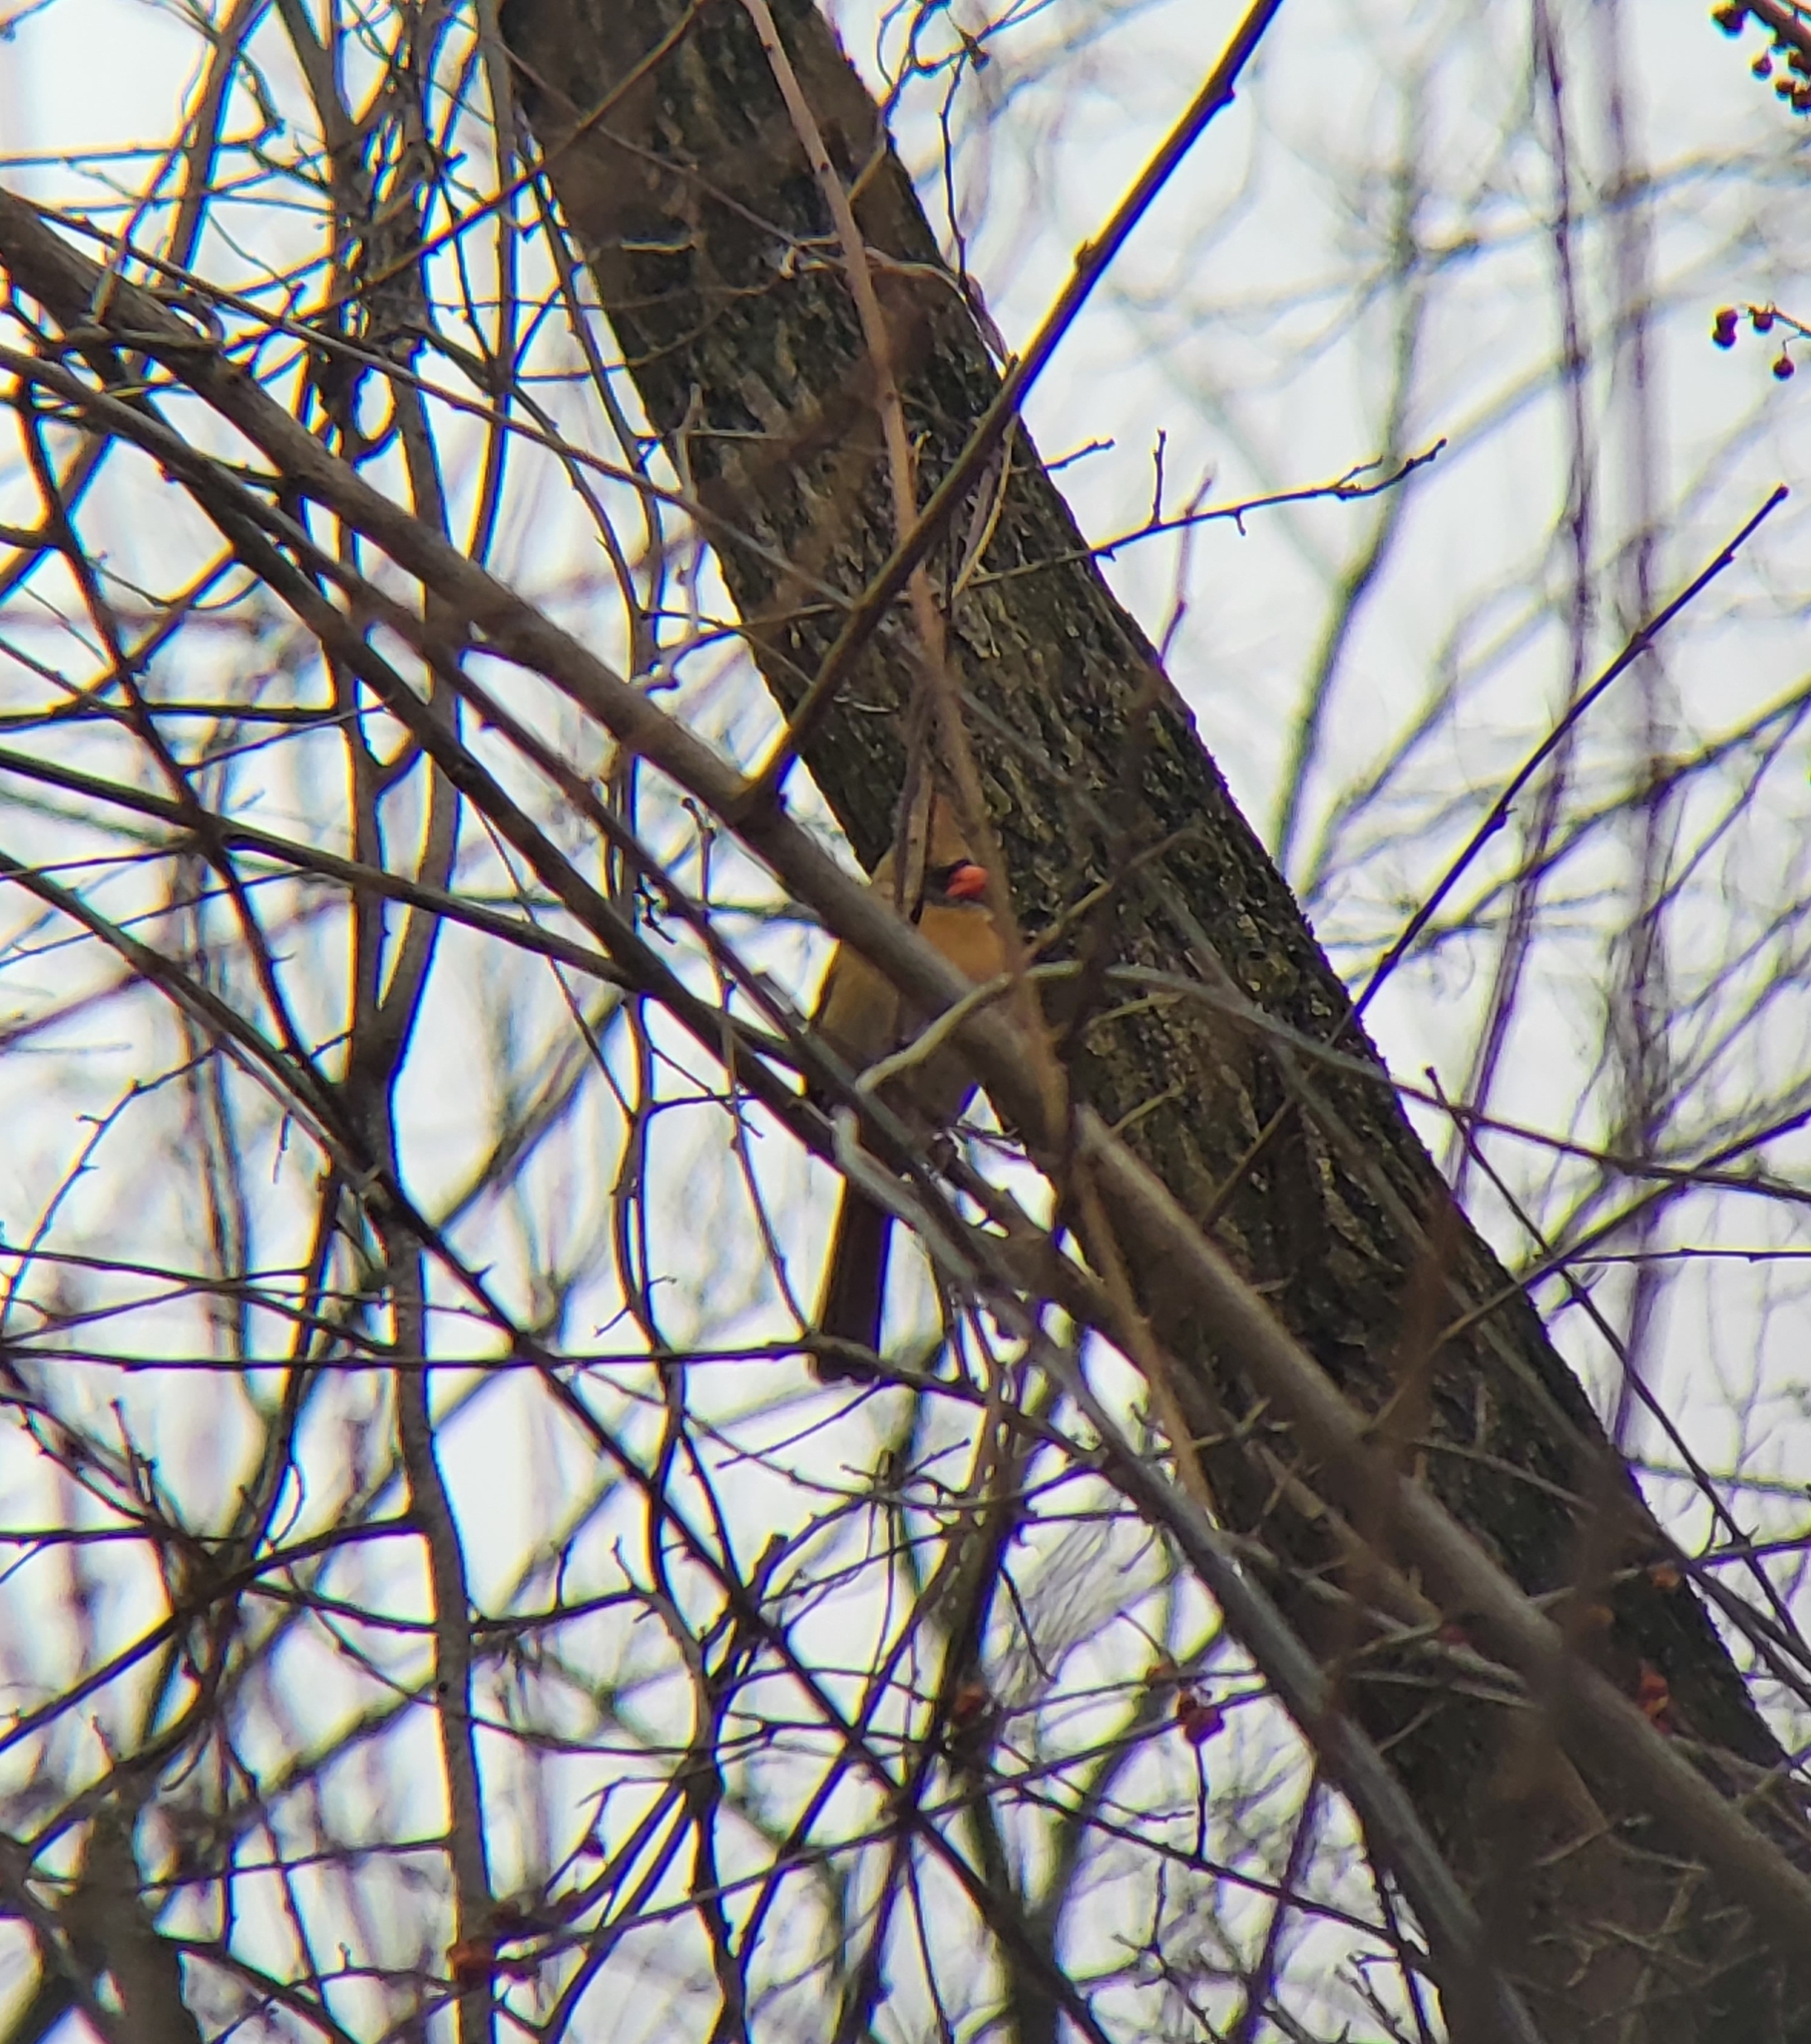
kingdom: Animalia
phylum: Chordata
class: Aves
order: Passeriformes
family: Cardinalidae
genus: Cardinalis
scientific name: Cardinalis cardinalis
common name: Northern cardinal
